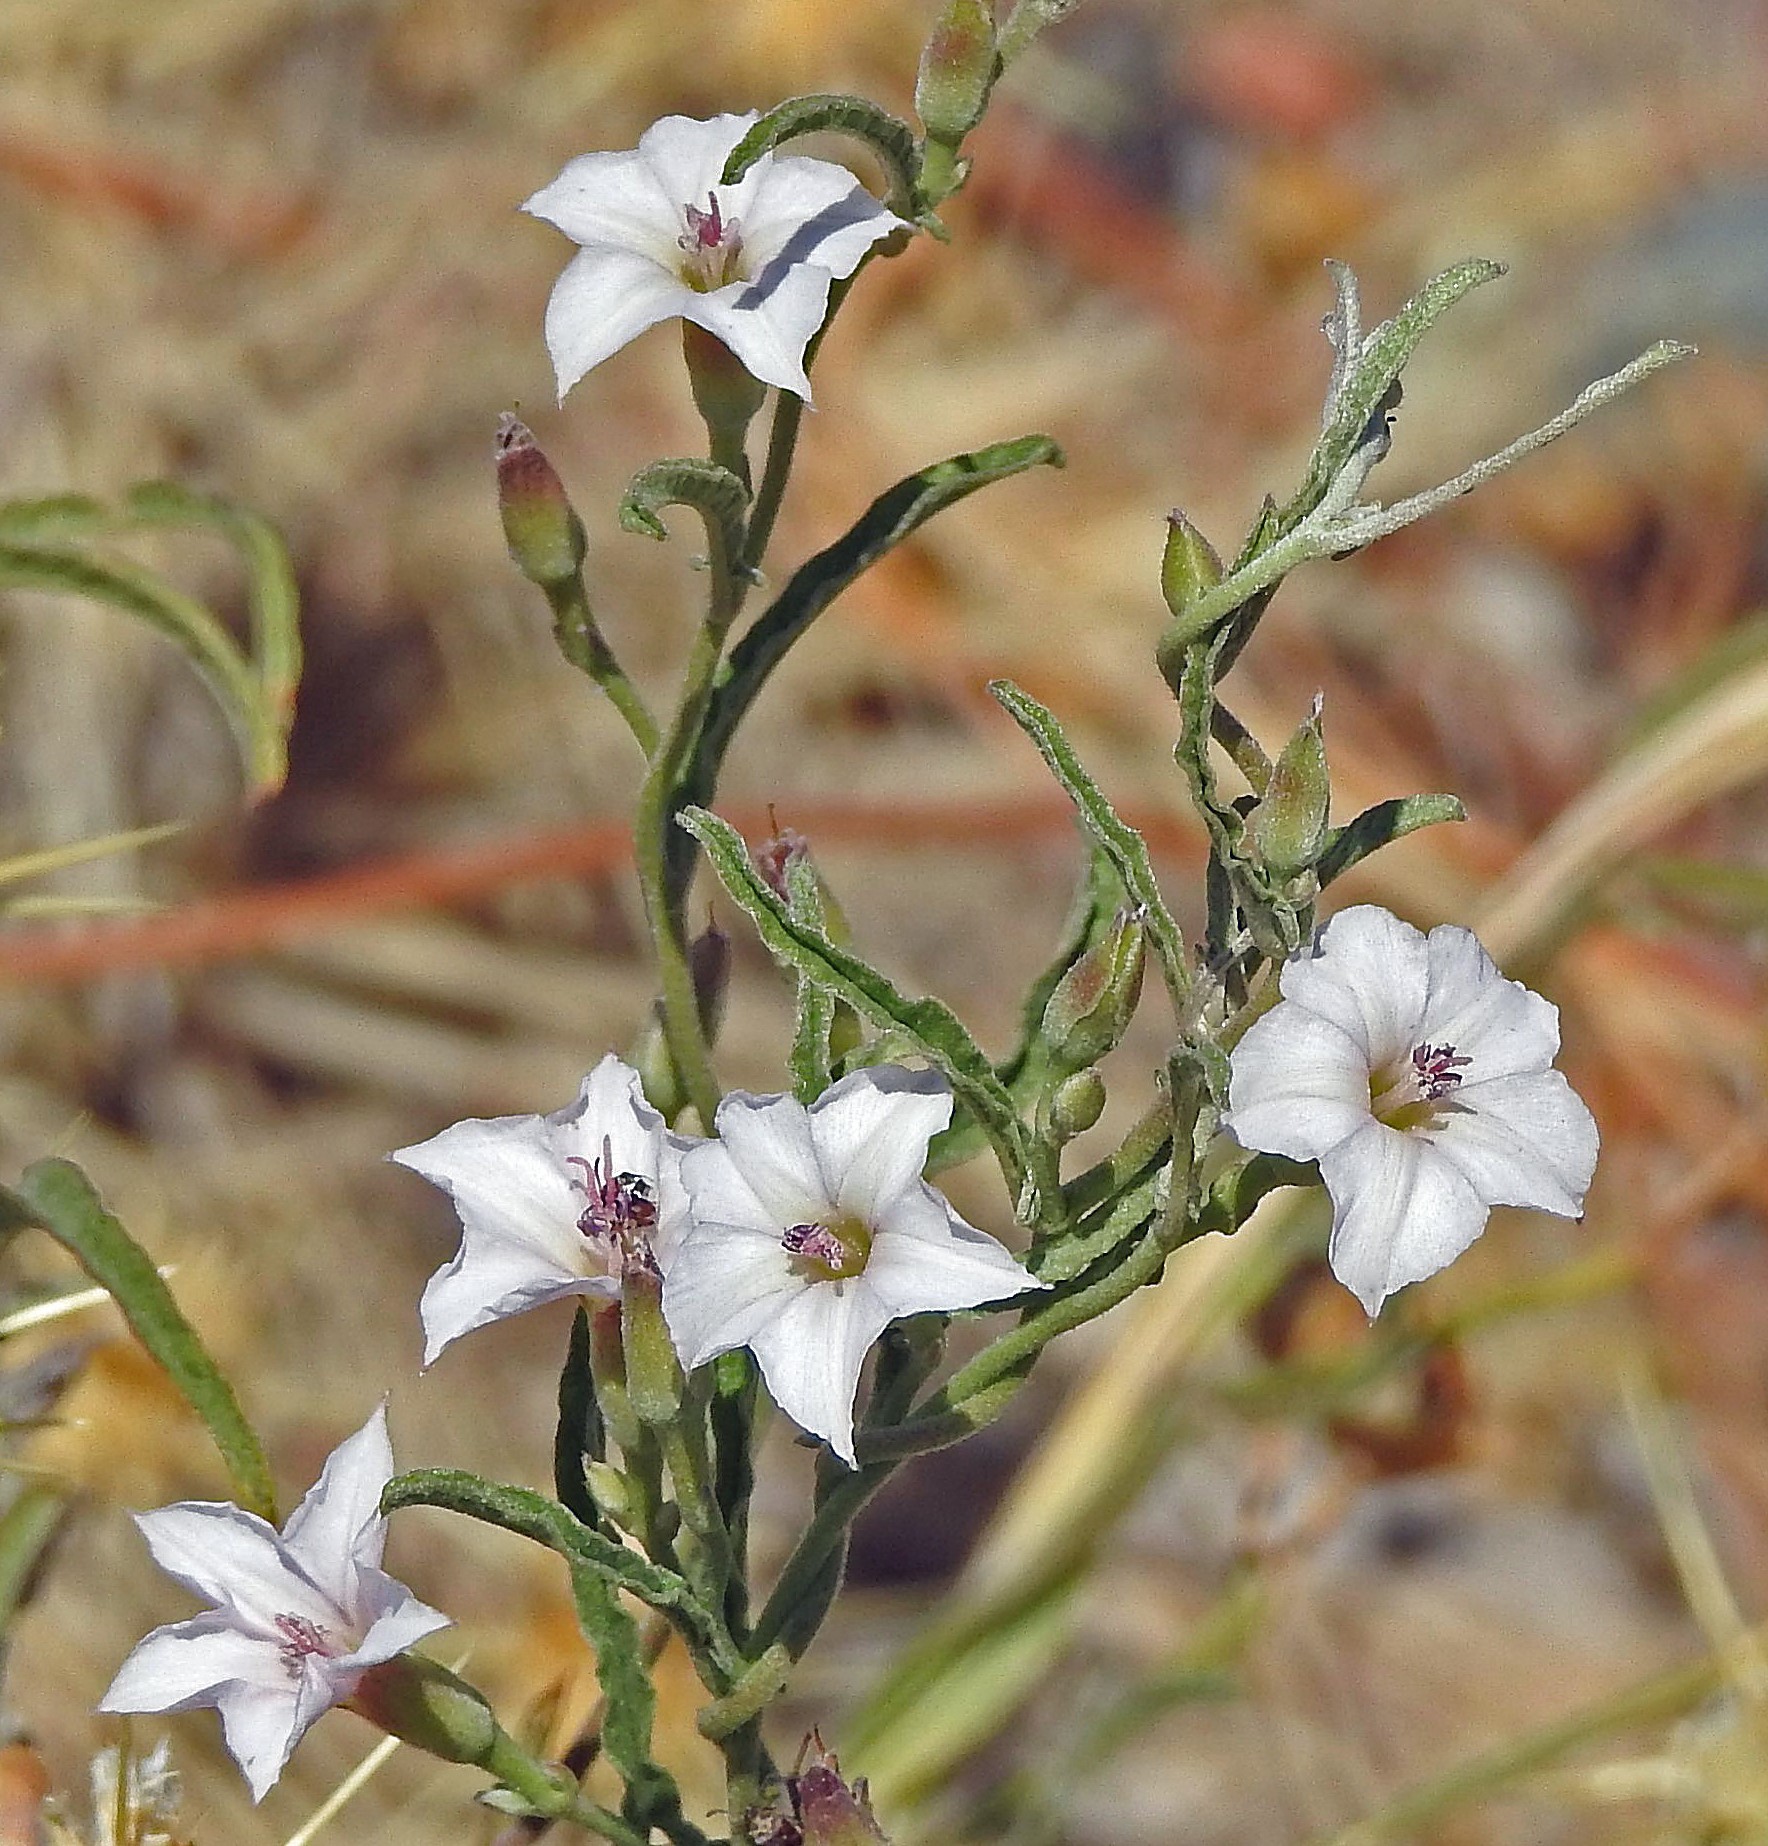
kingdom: Plantae
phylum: Tracheophyta
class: Magnoliopsida
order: Solanales
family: Convolvulaceae
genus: Convolvulus
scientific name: Convolvulus bonariensis
